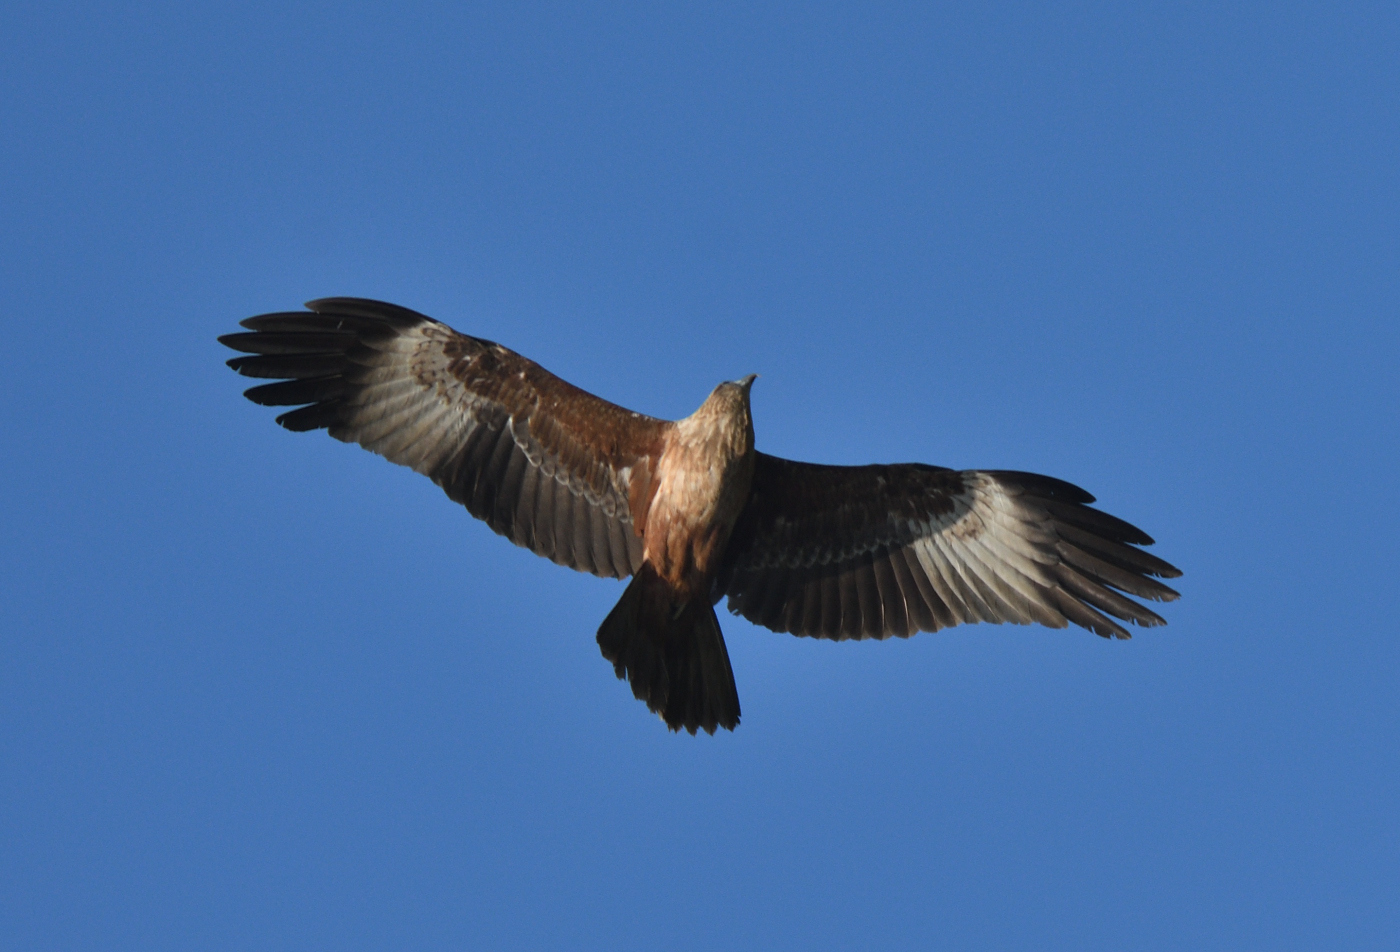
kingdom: Animalia
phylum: Chordata
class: Aves
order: Accipitriformes
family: Accipitridae
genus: Haliastur
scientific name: Haliastur indus
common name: Brahminy kite
